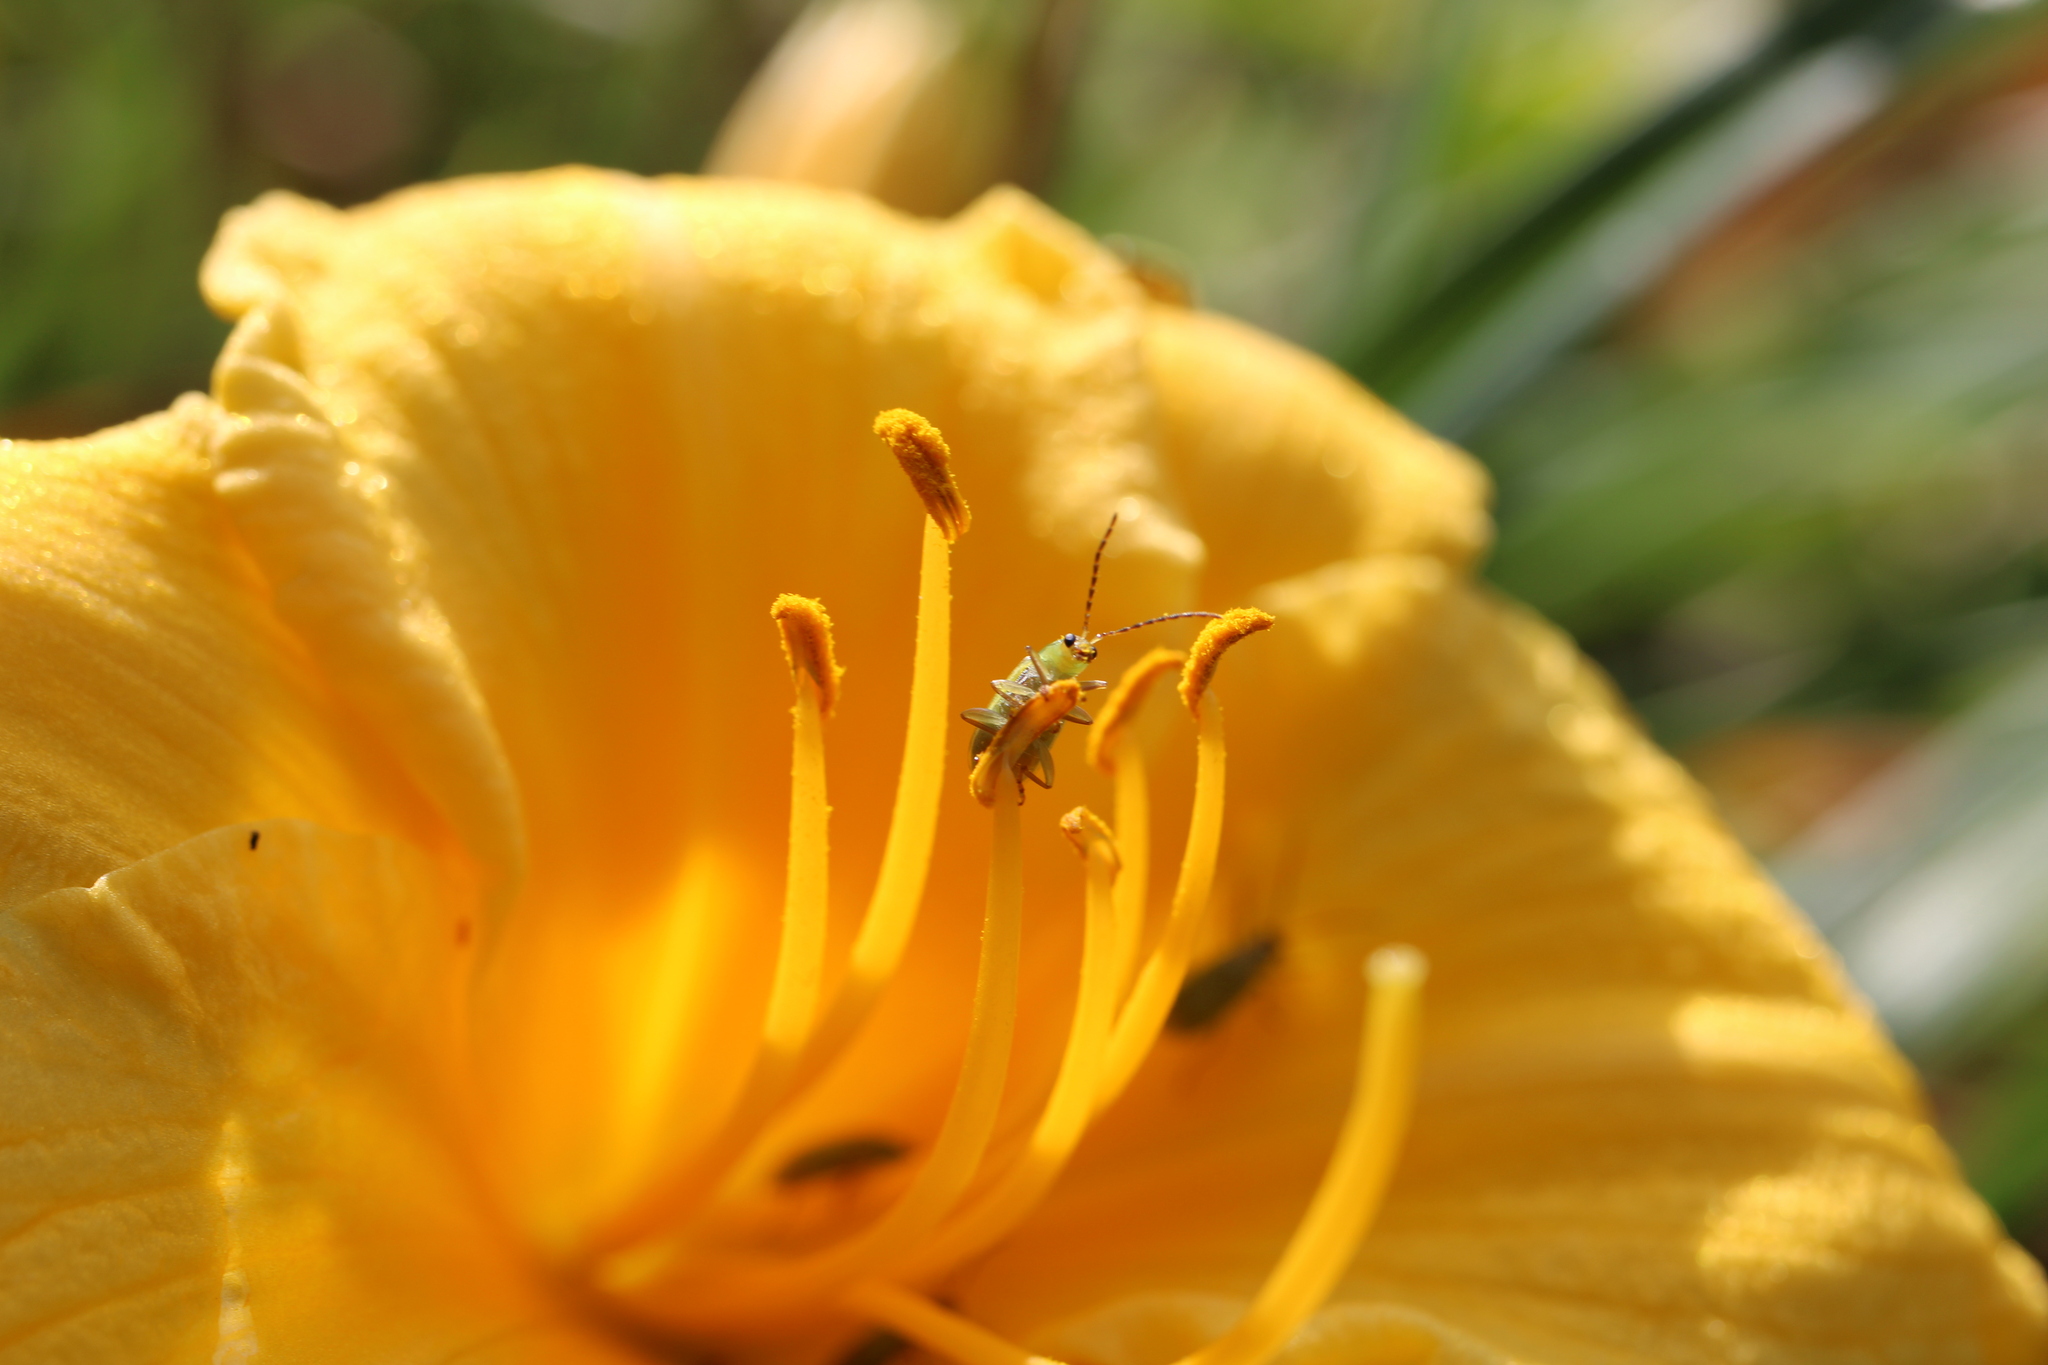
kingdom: Animalia
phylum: Arthropoda
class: Insecta
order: Coleoptera
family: Chrysomelidae
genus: Diabrotica
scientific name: Diabrotica barberi
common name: Northern corn rootworm
